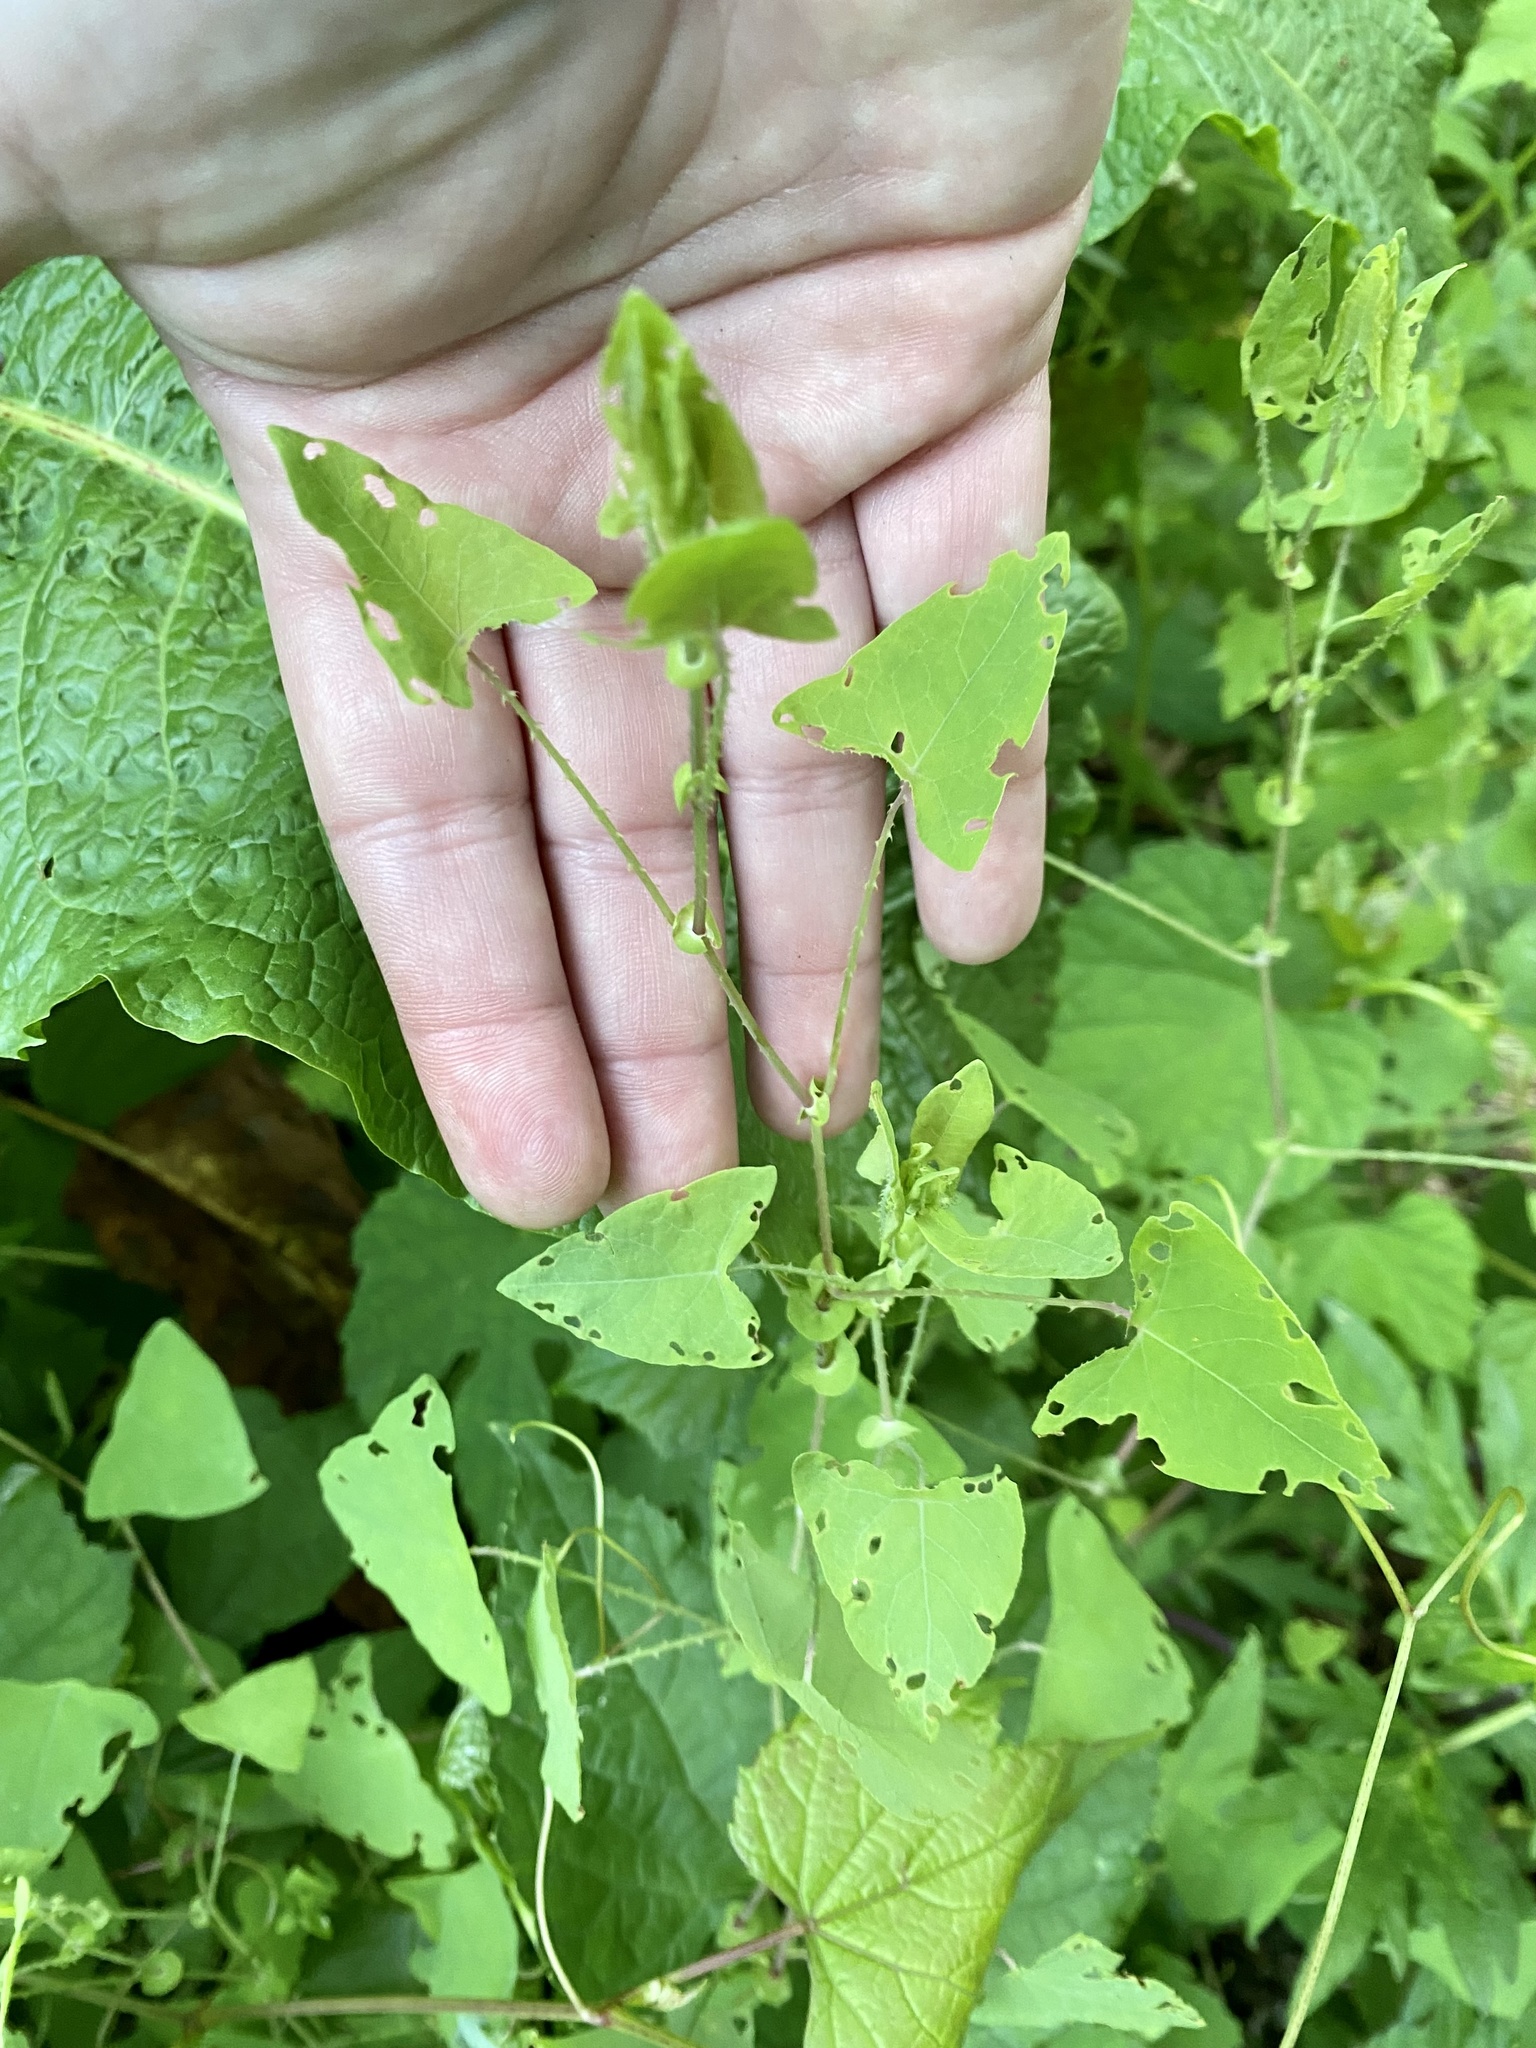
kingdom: Plantae
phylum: Tracheophyta
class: Magnoliopsida
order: Caryophyllales
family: Polygonaceae
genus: Persicaria
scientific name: Persicaria perfoliata
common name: Asiatic tearthumb
